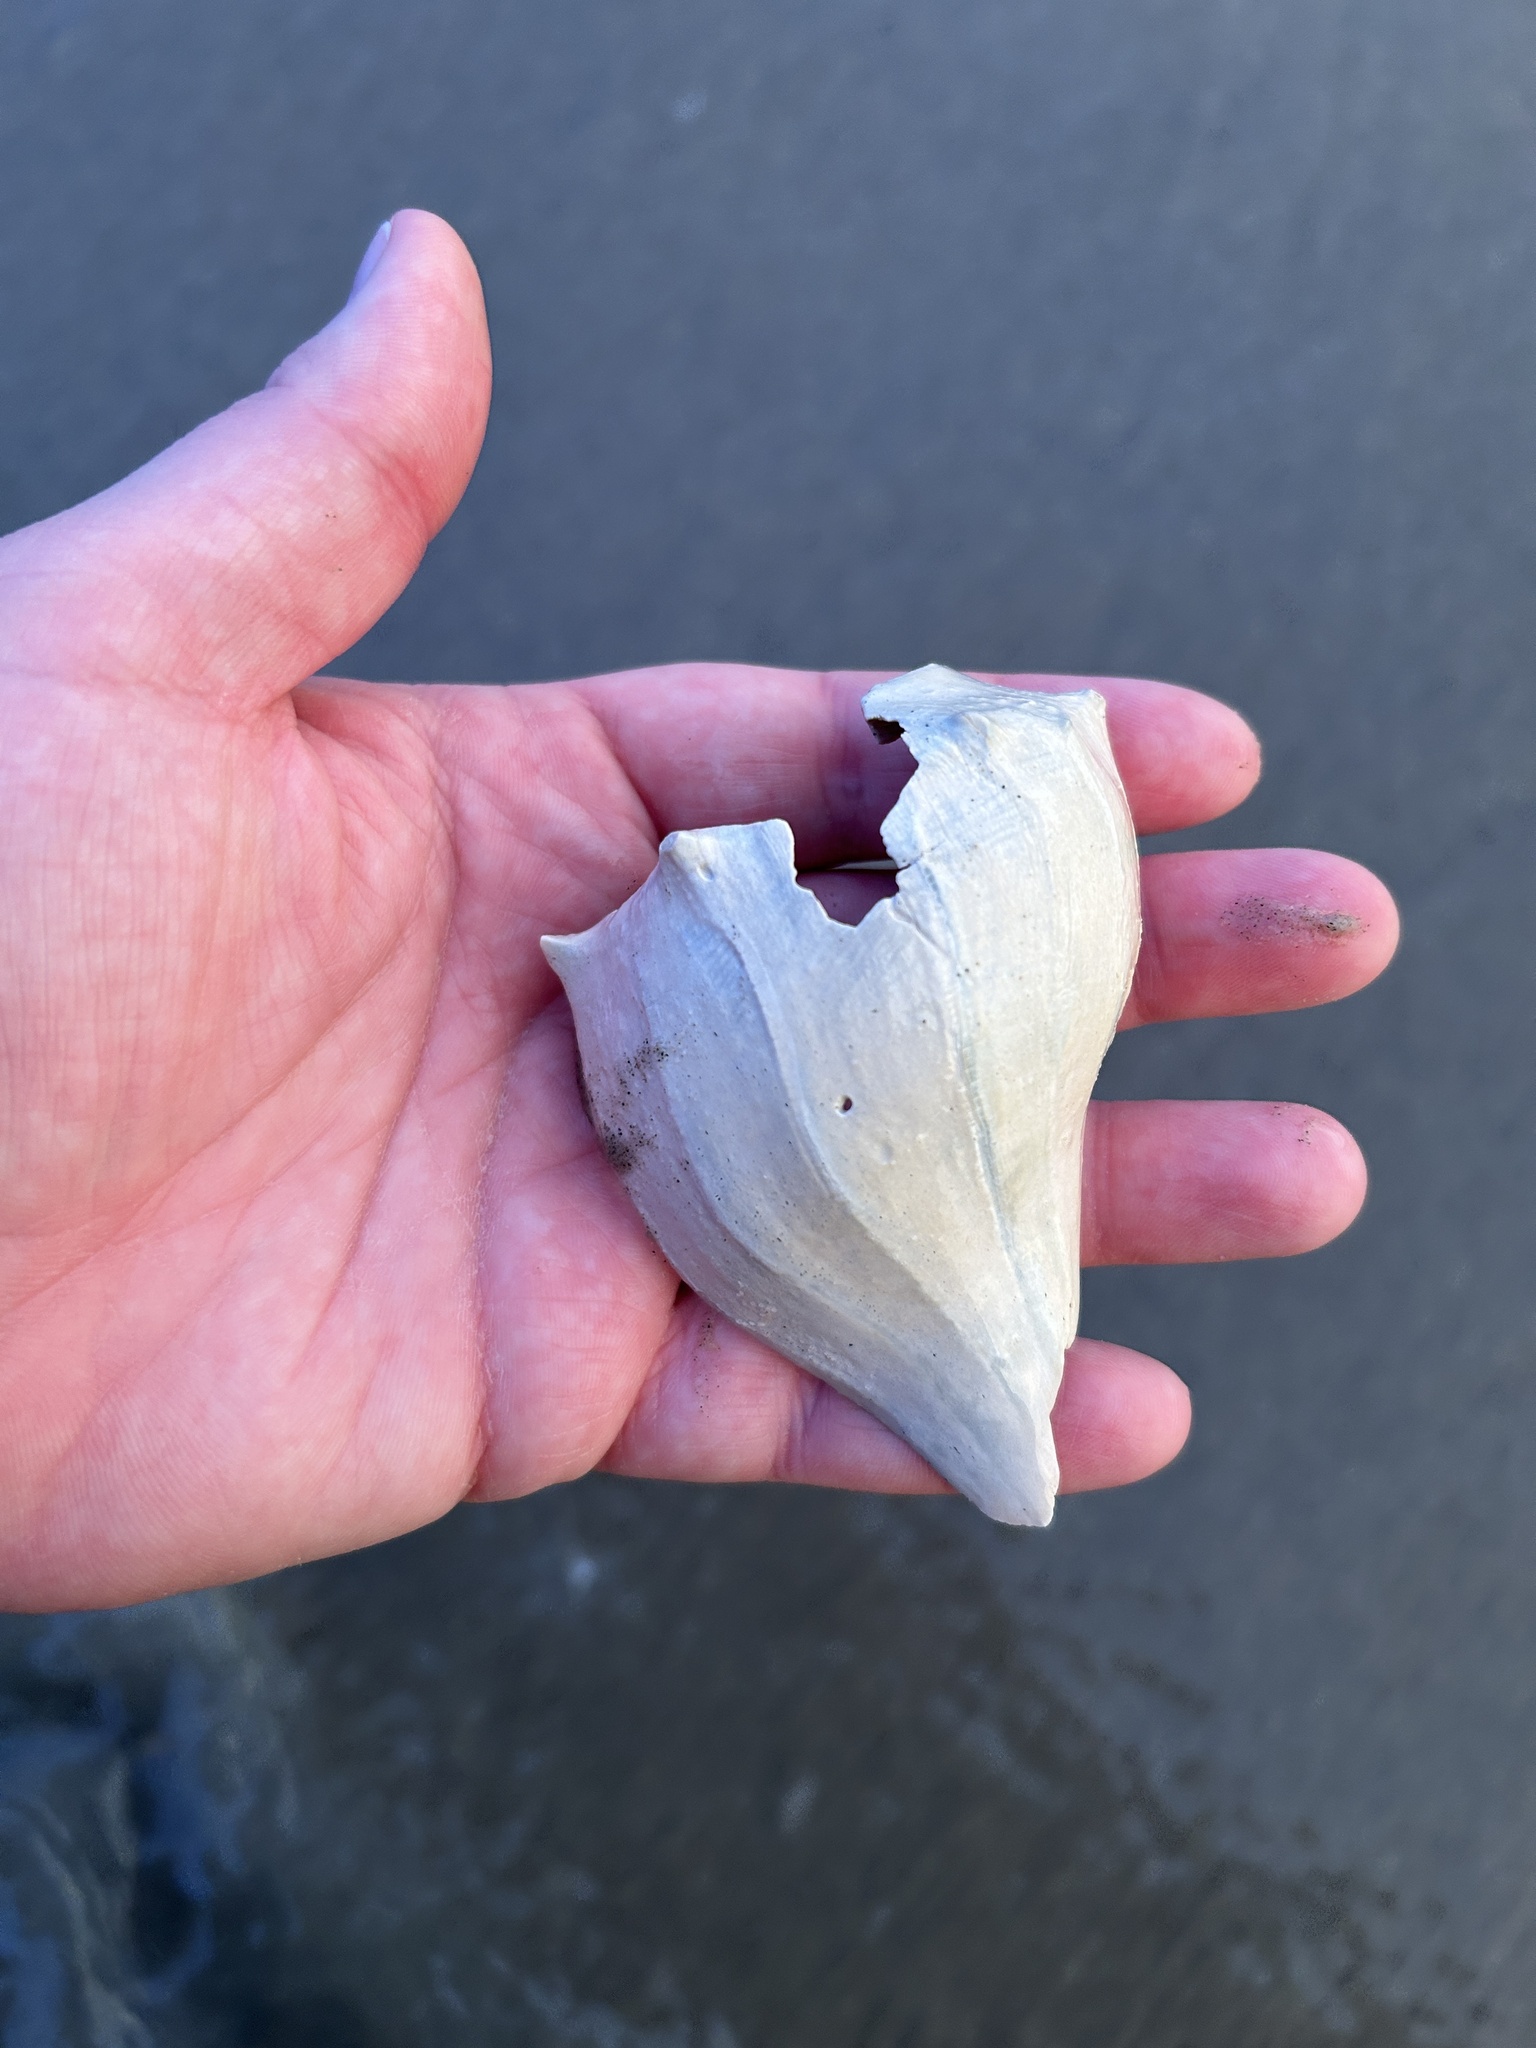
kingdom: Animalia
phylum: Mollusca
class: Gastropoda
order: Neogastropoda
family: Busyconidae
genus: Busycon
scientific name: Busycon carica
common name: Knobbed whelk
